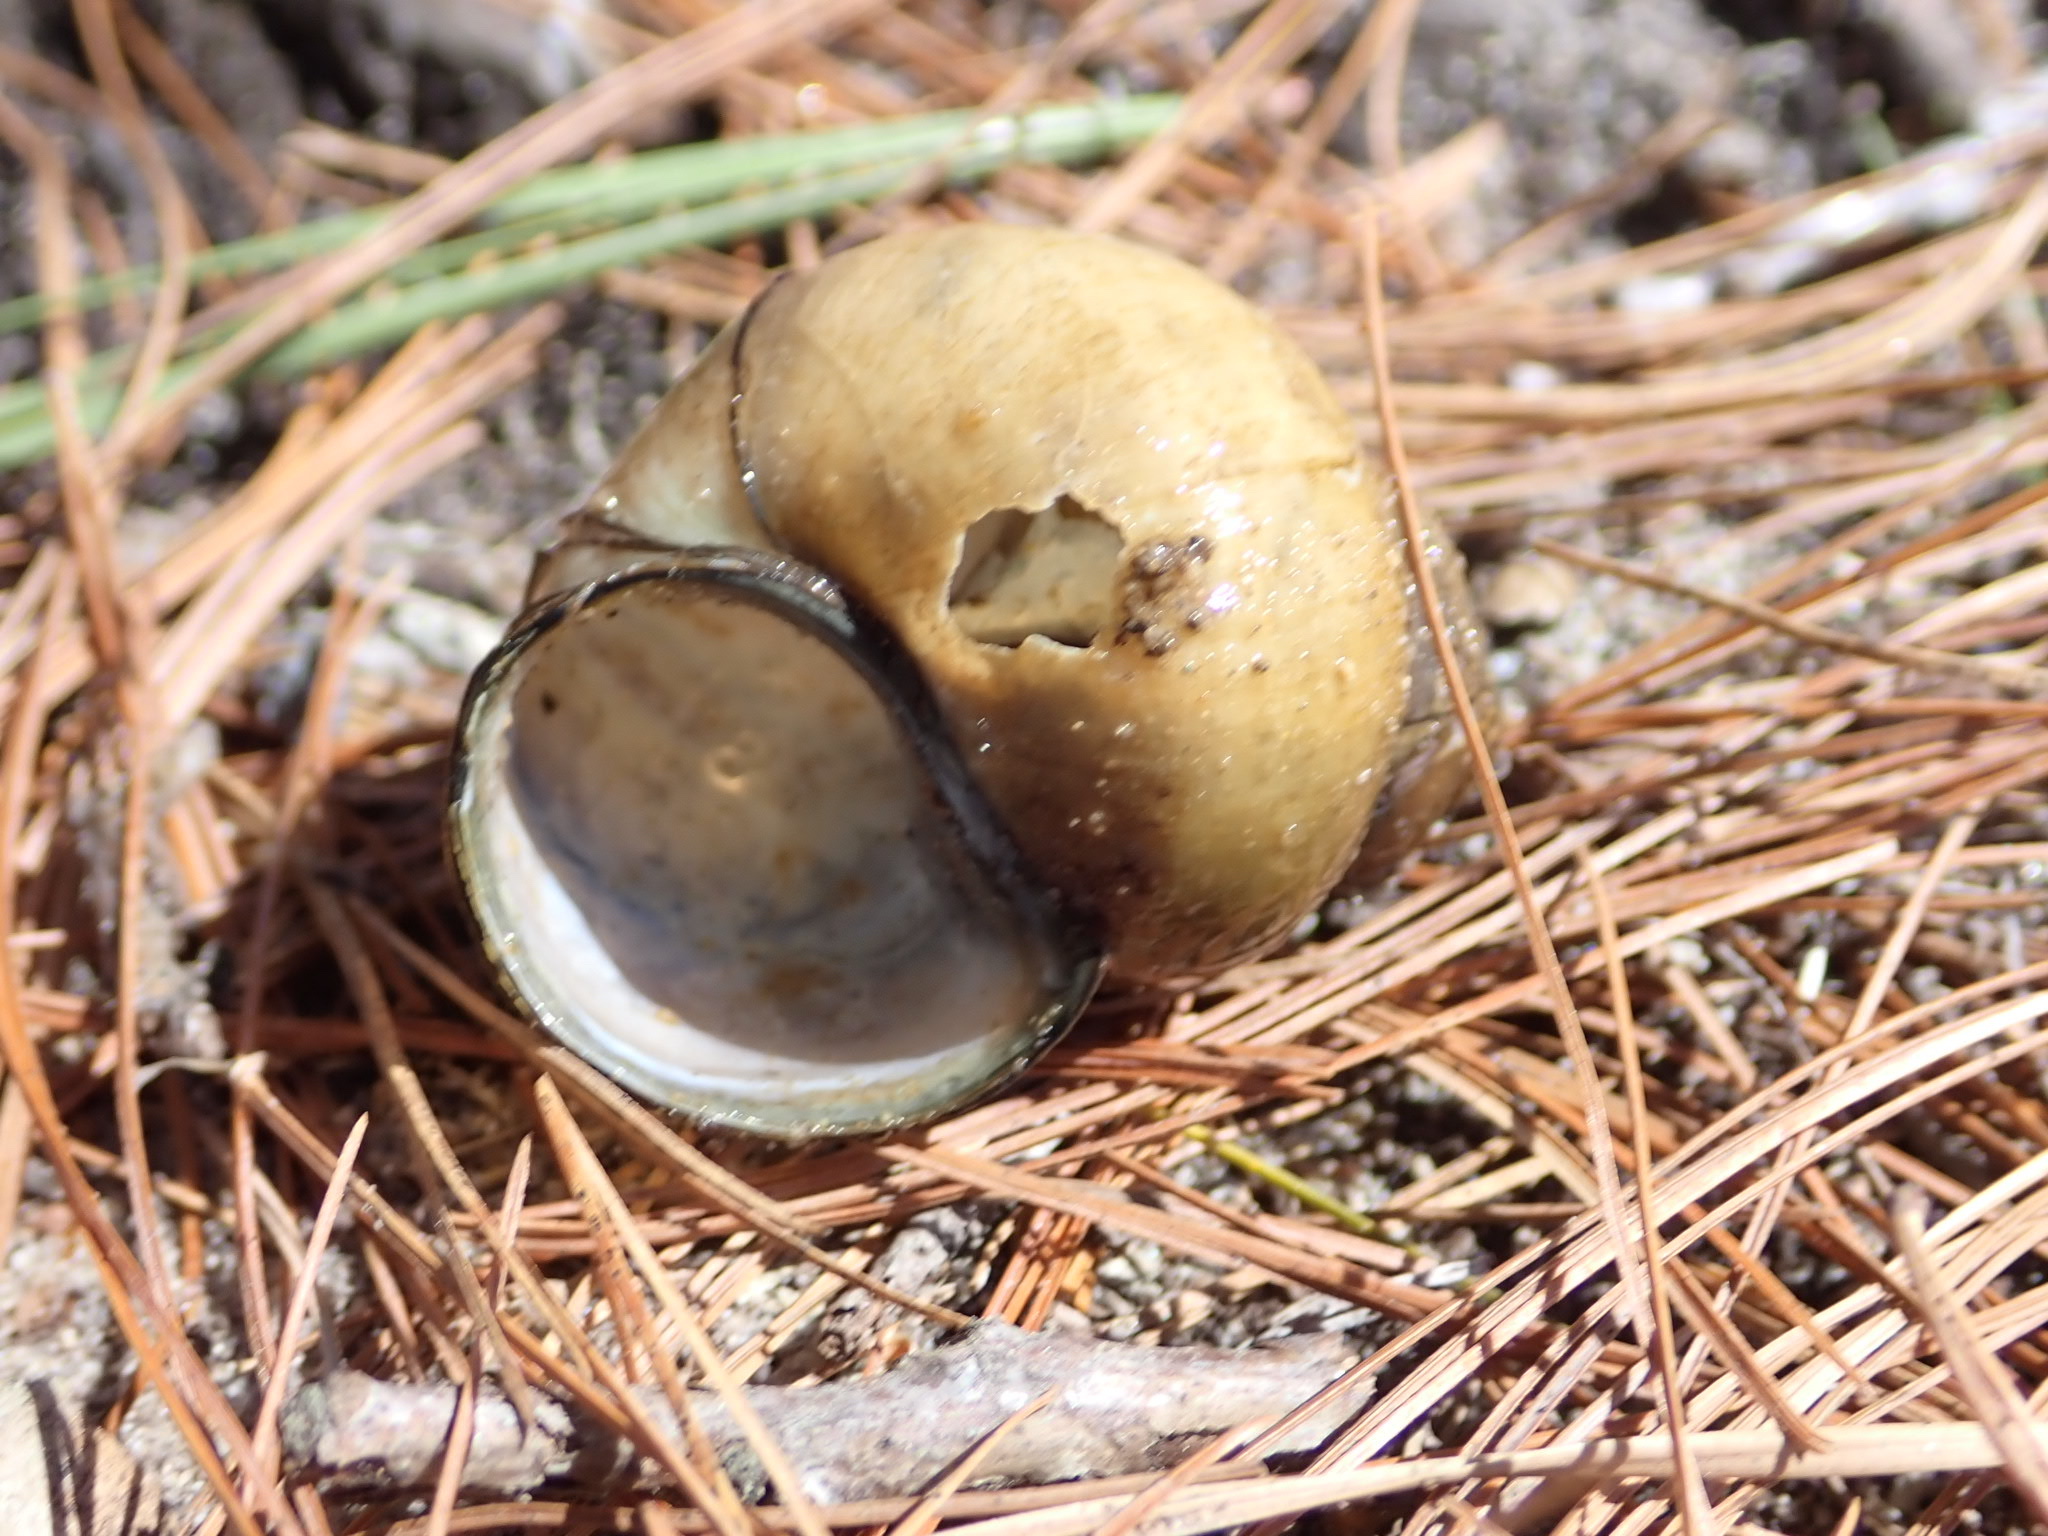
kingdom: Animalia
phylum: Mollusca
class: Gastropoda
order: Architaenioglossa
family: Viviparidae
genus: Cipangopaludina
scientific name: Cipangopaludina chinensis
